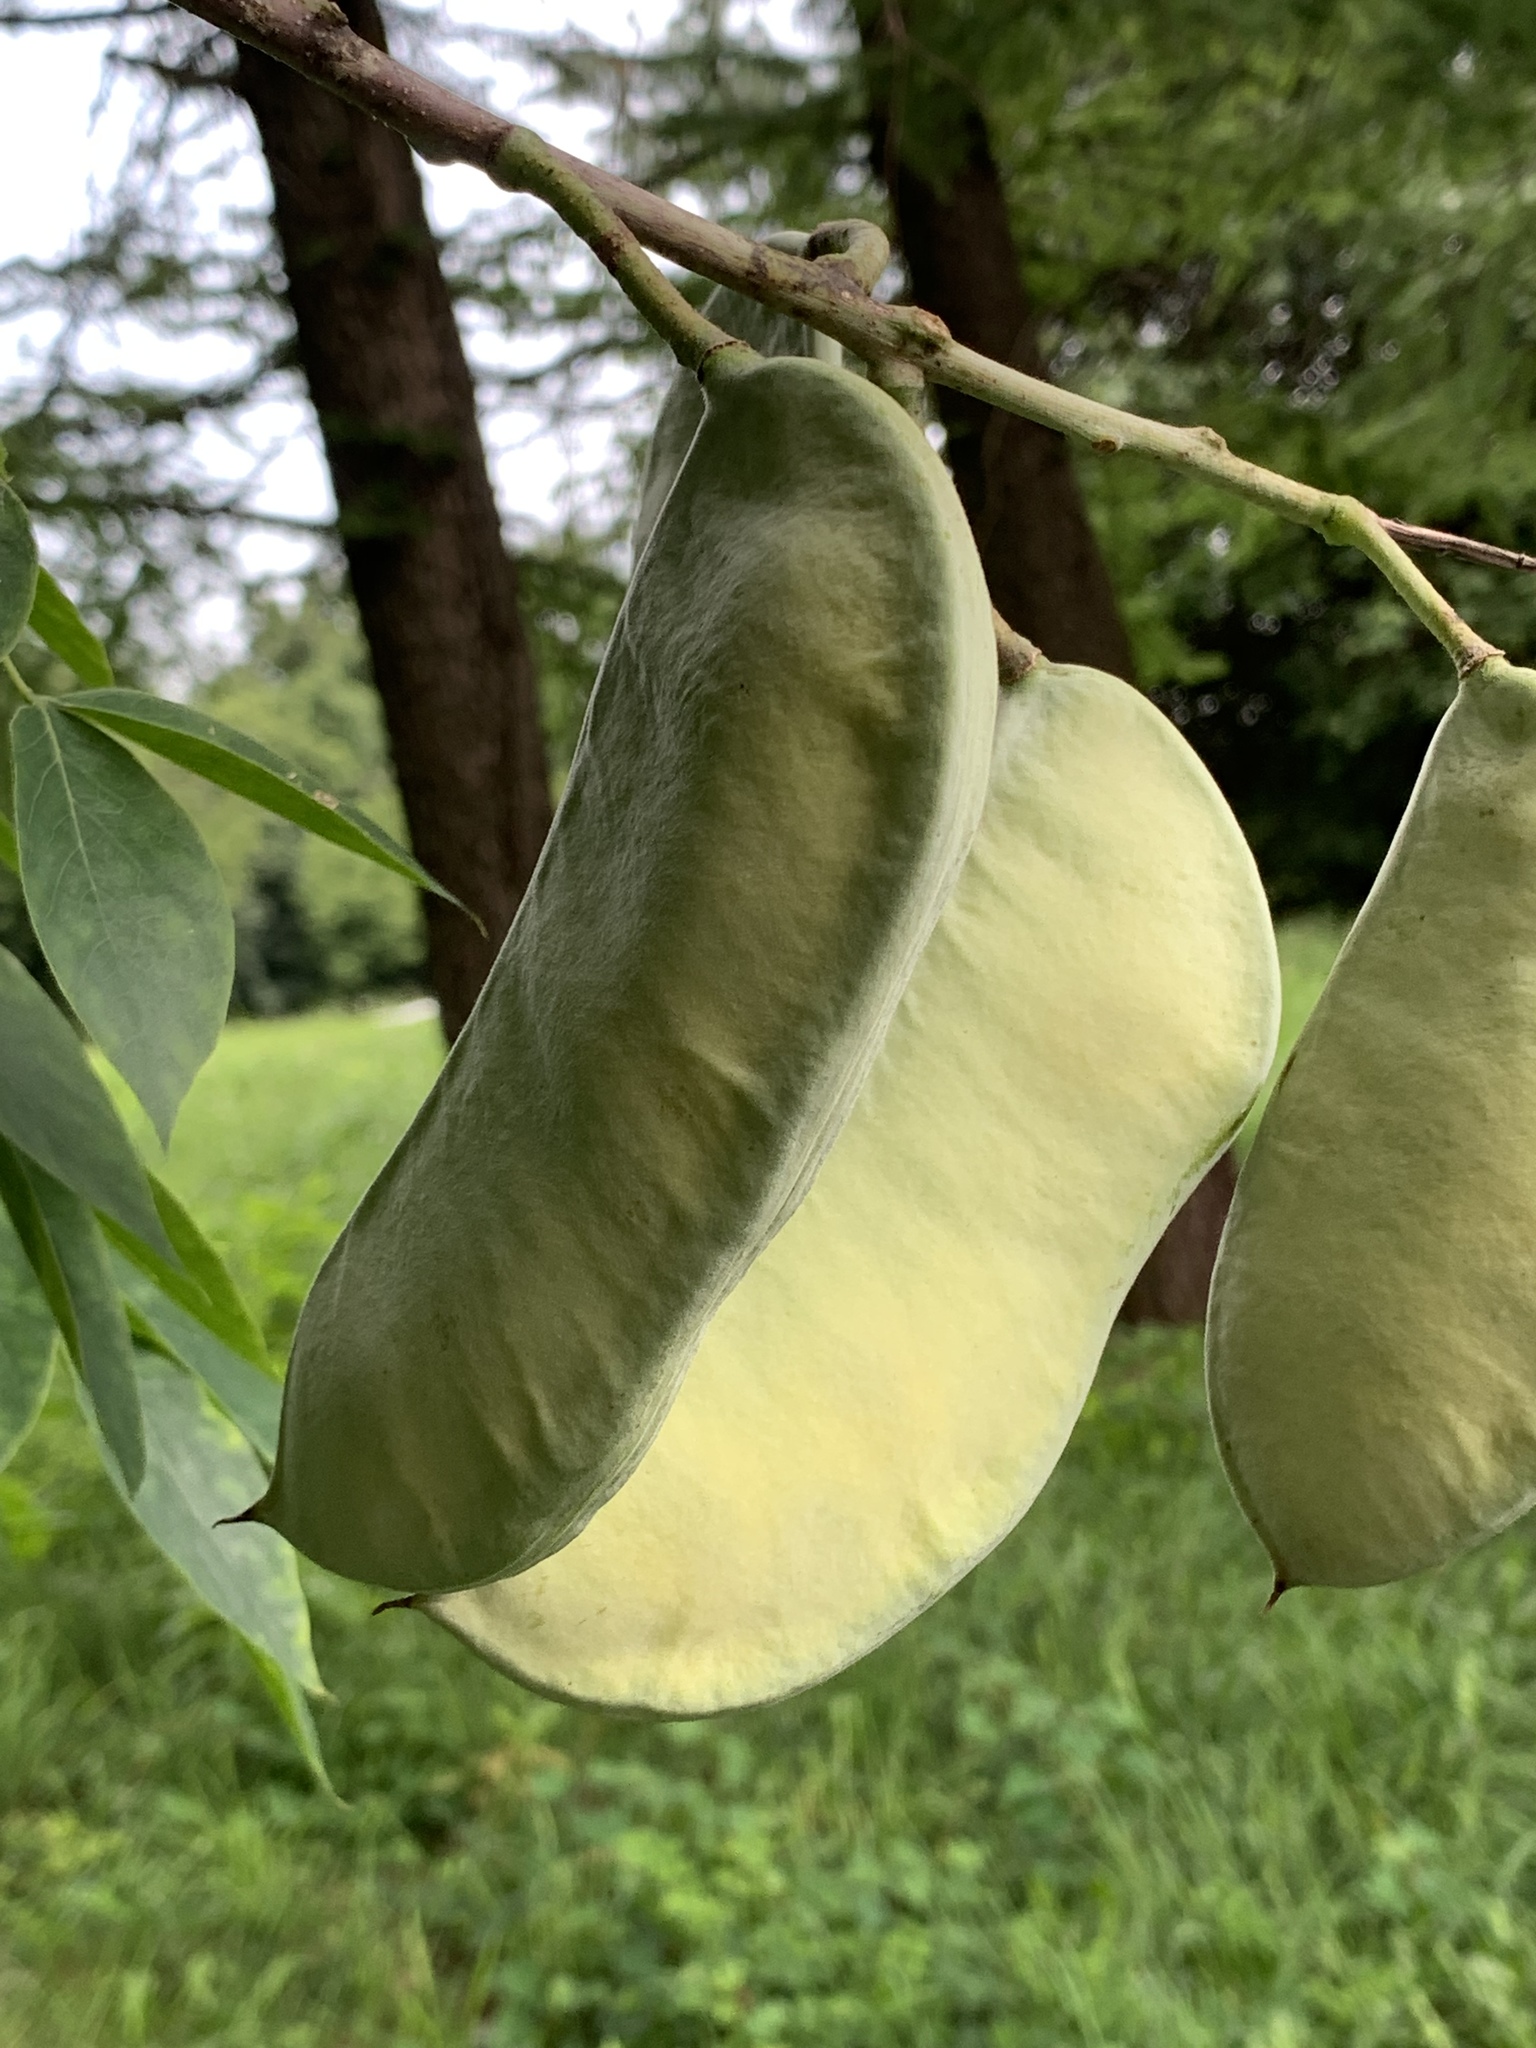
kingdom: Plantae
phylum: Tracheophyta
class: Magnoliopsida
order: Fabales
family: Fabaceae
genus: Gymnocladus
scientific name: Gymnocladus dioicus
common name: Kentucky coffee-tree
